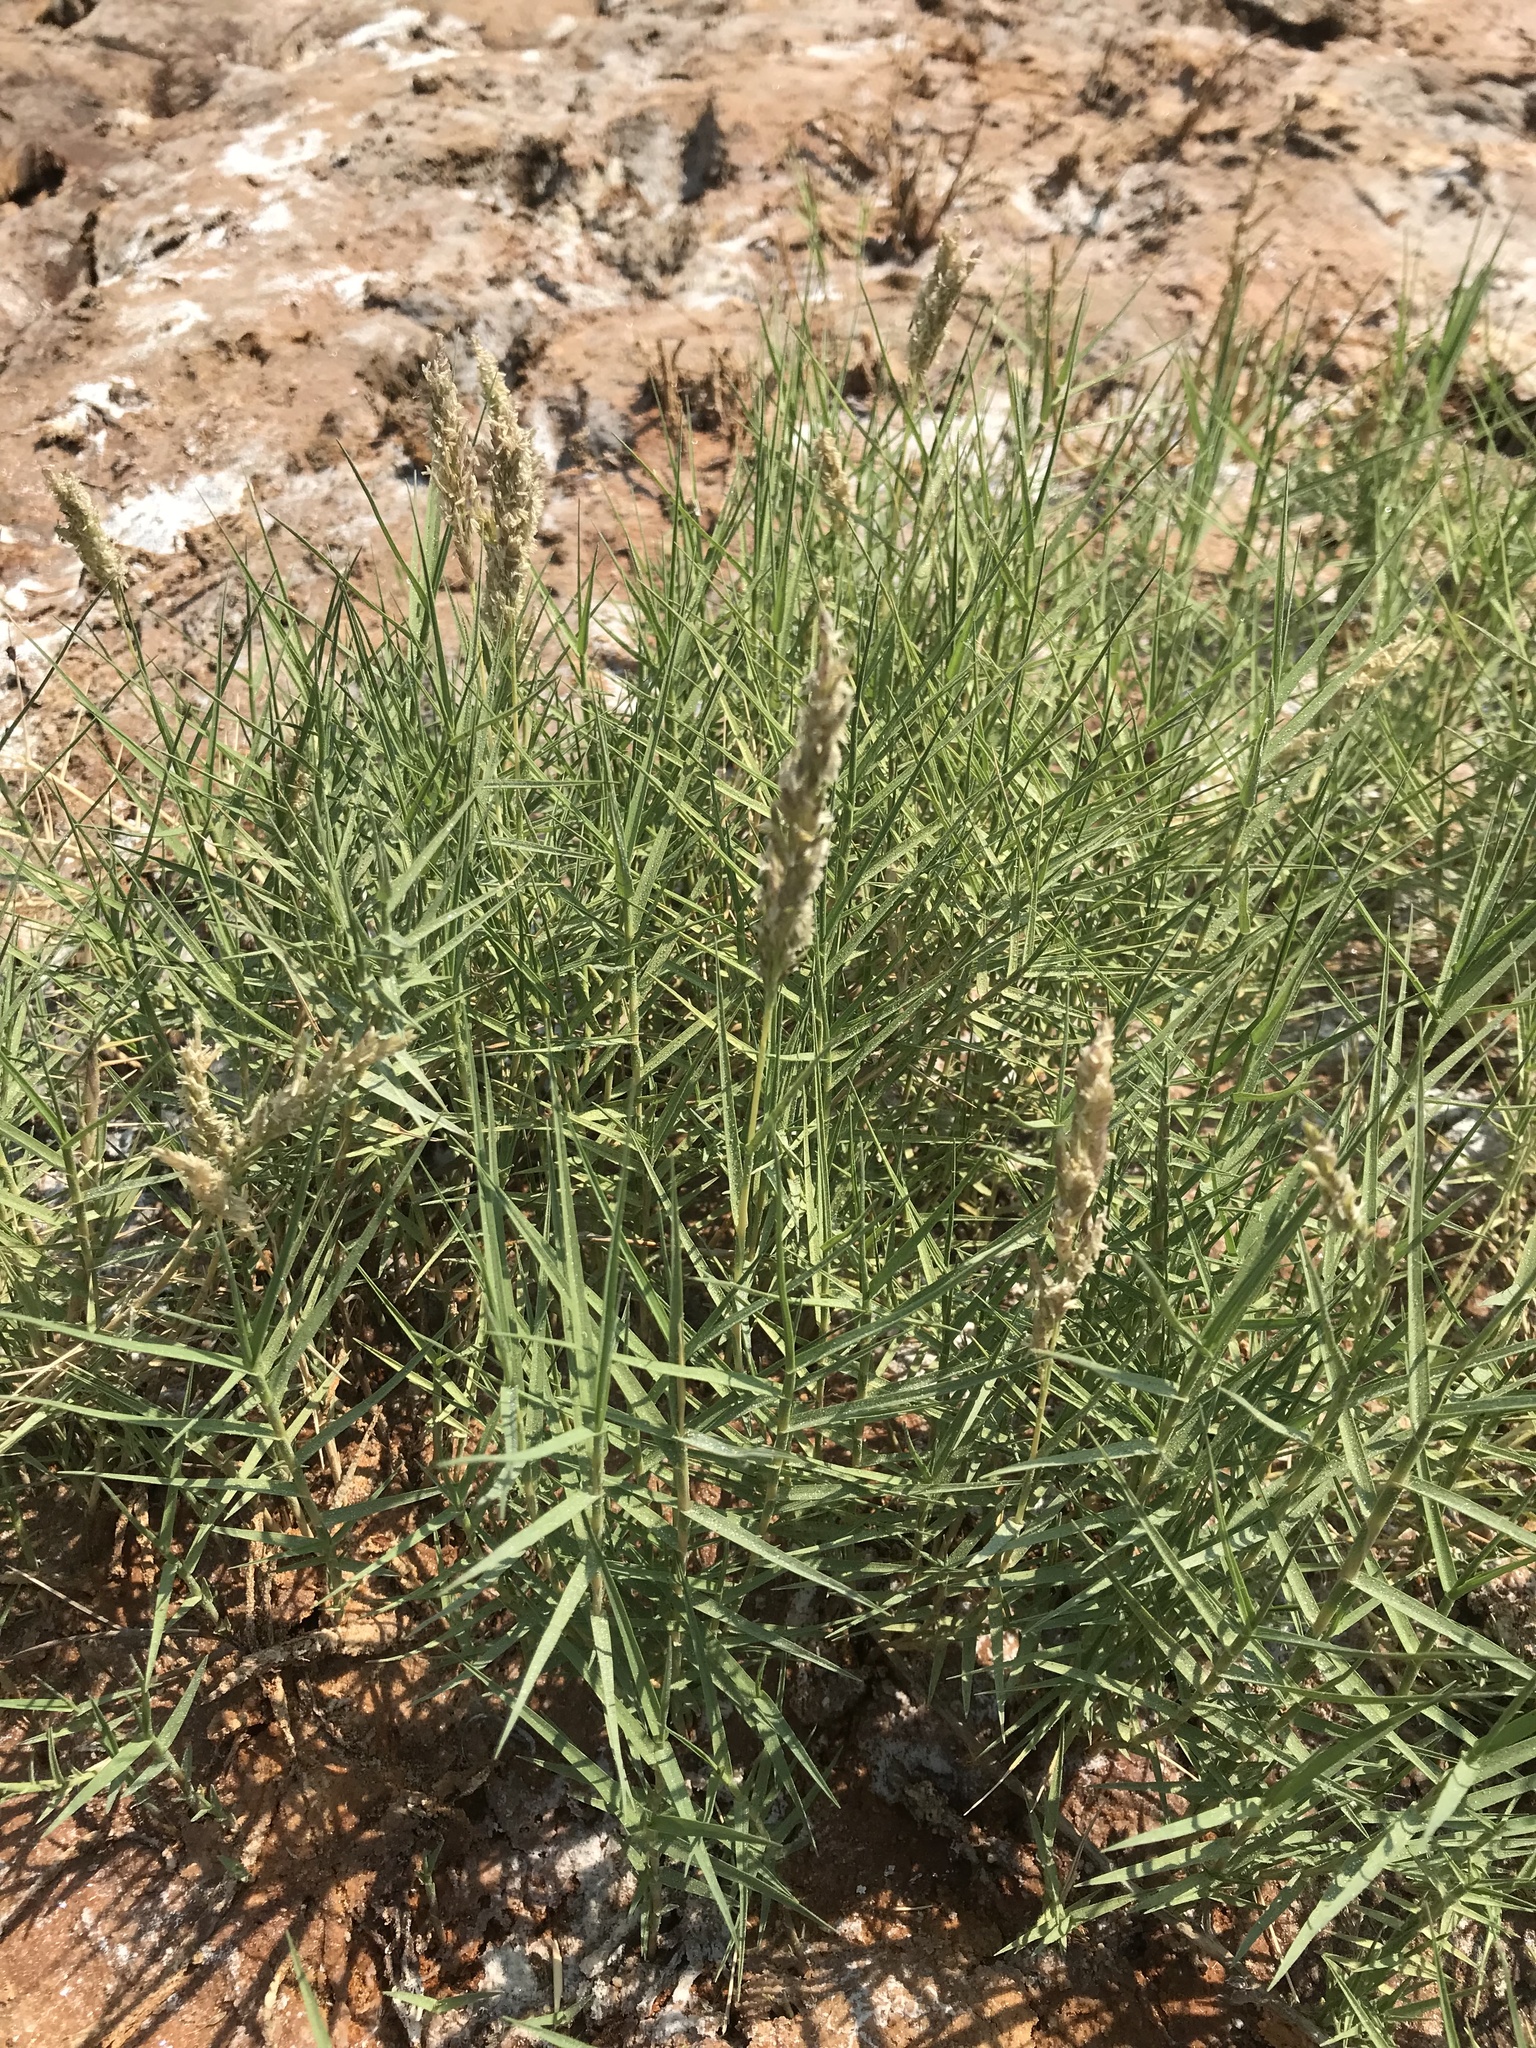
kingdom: Plantae
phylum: Tracheophyta
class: Liliopsida
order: Poales
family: Poaceae
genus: Distichlis
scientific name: Distichlis spicata
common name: Saltgrass
